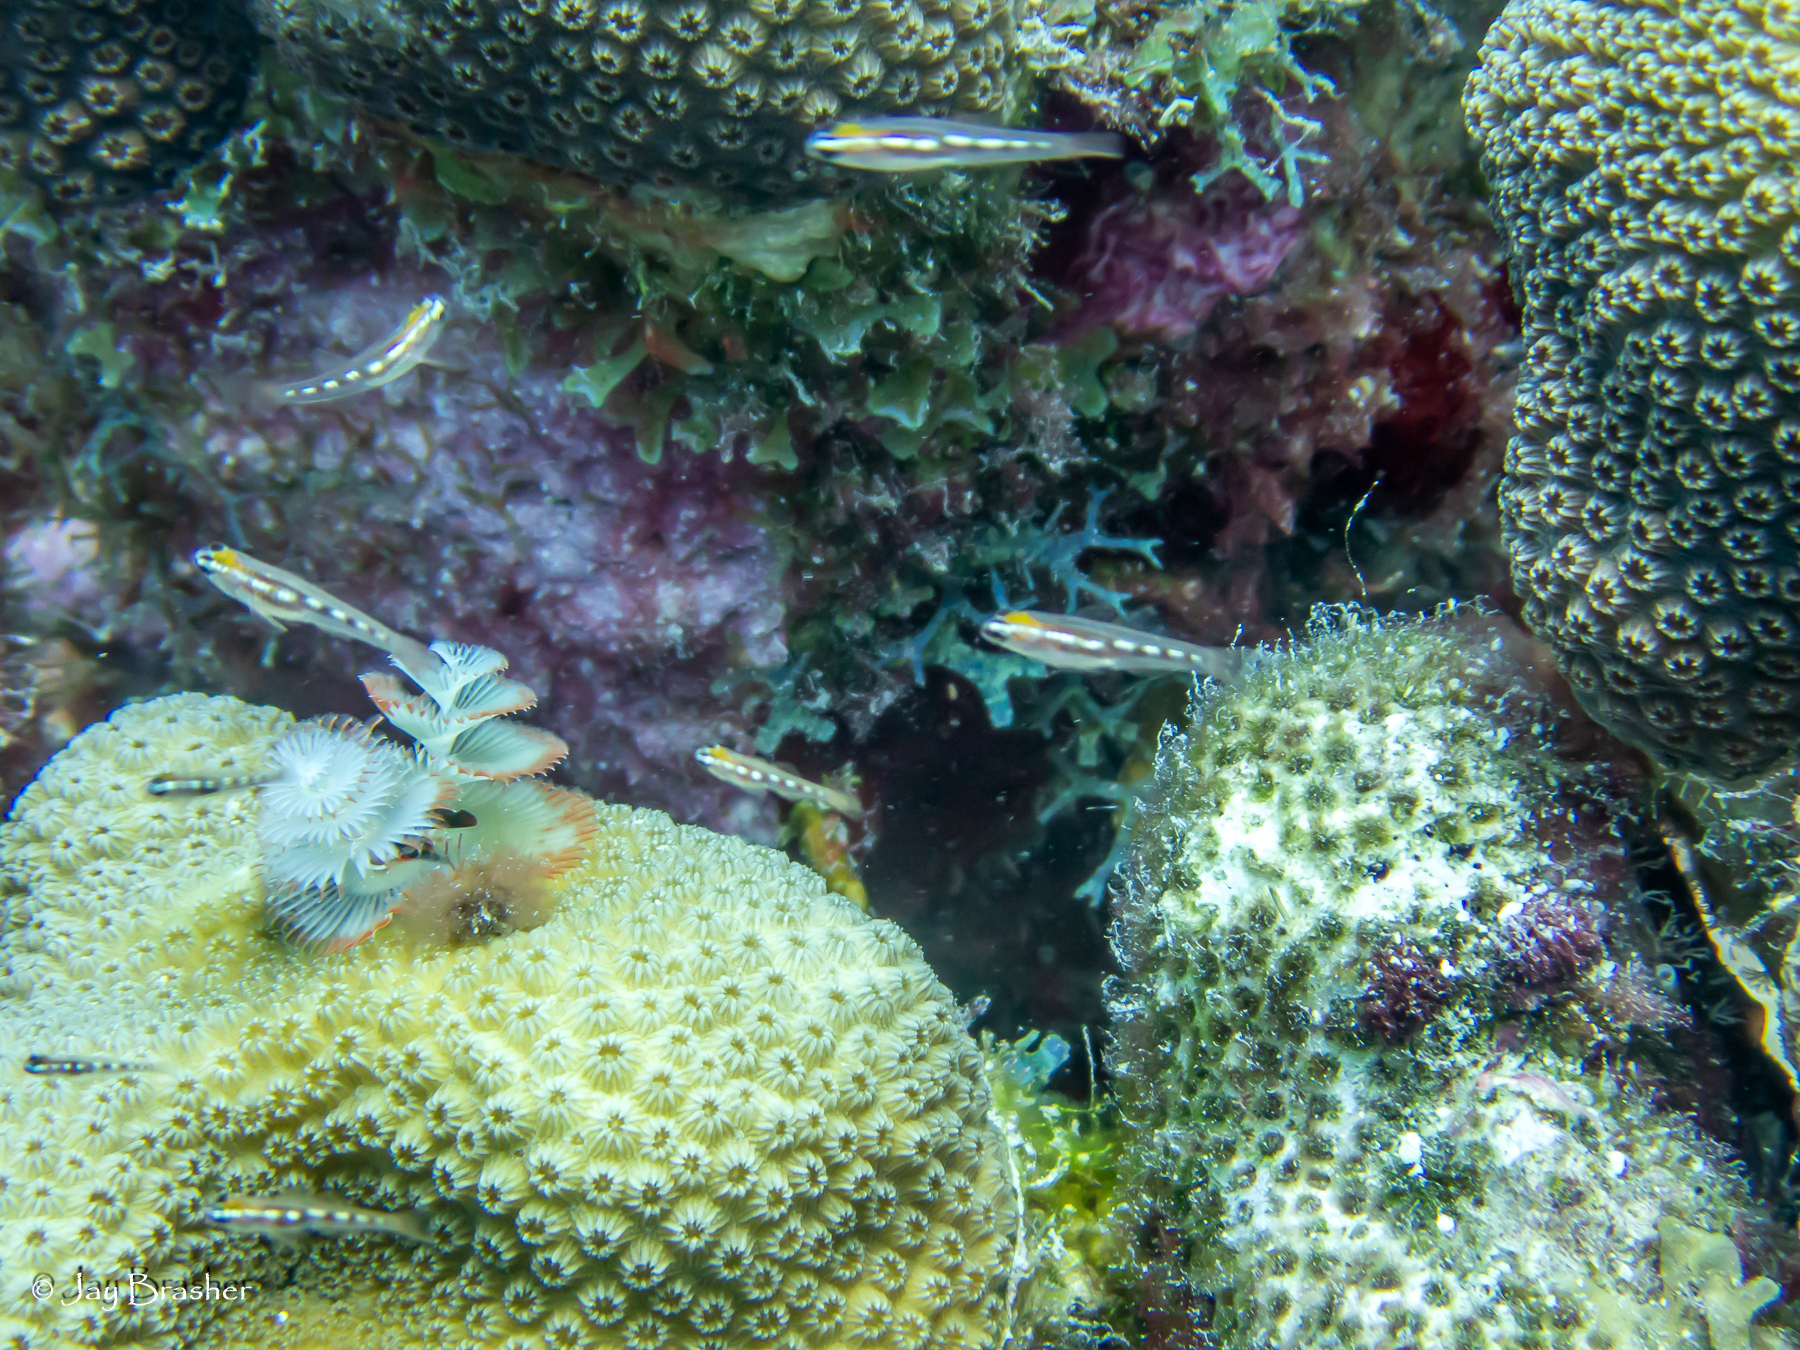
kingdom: Animalia
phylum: Annelida
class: Polychaeta
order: Sabellida
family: Serpulidae
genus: Spirobranchus
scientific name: Spirobranchus giganteus
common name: Christmas tree worm
